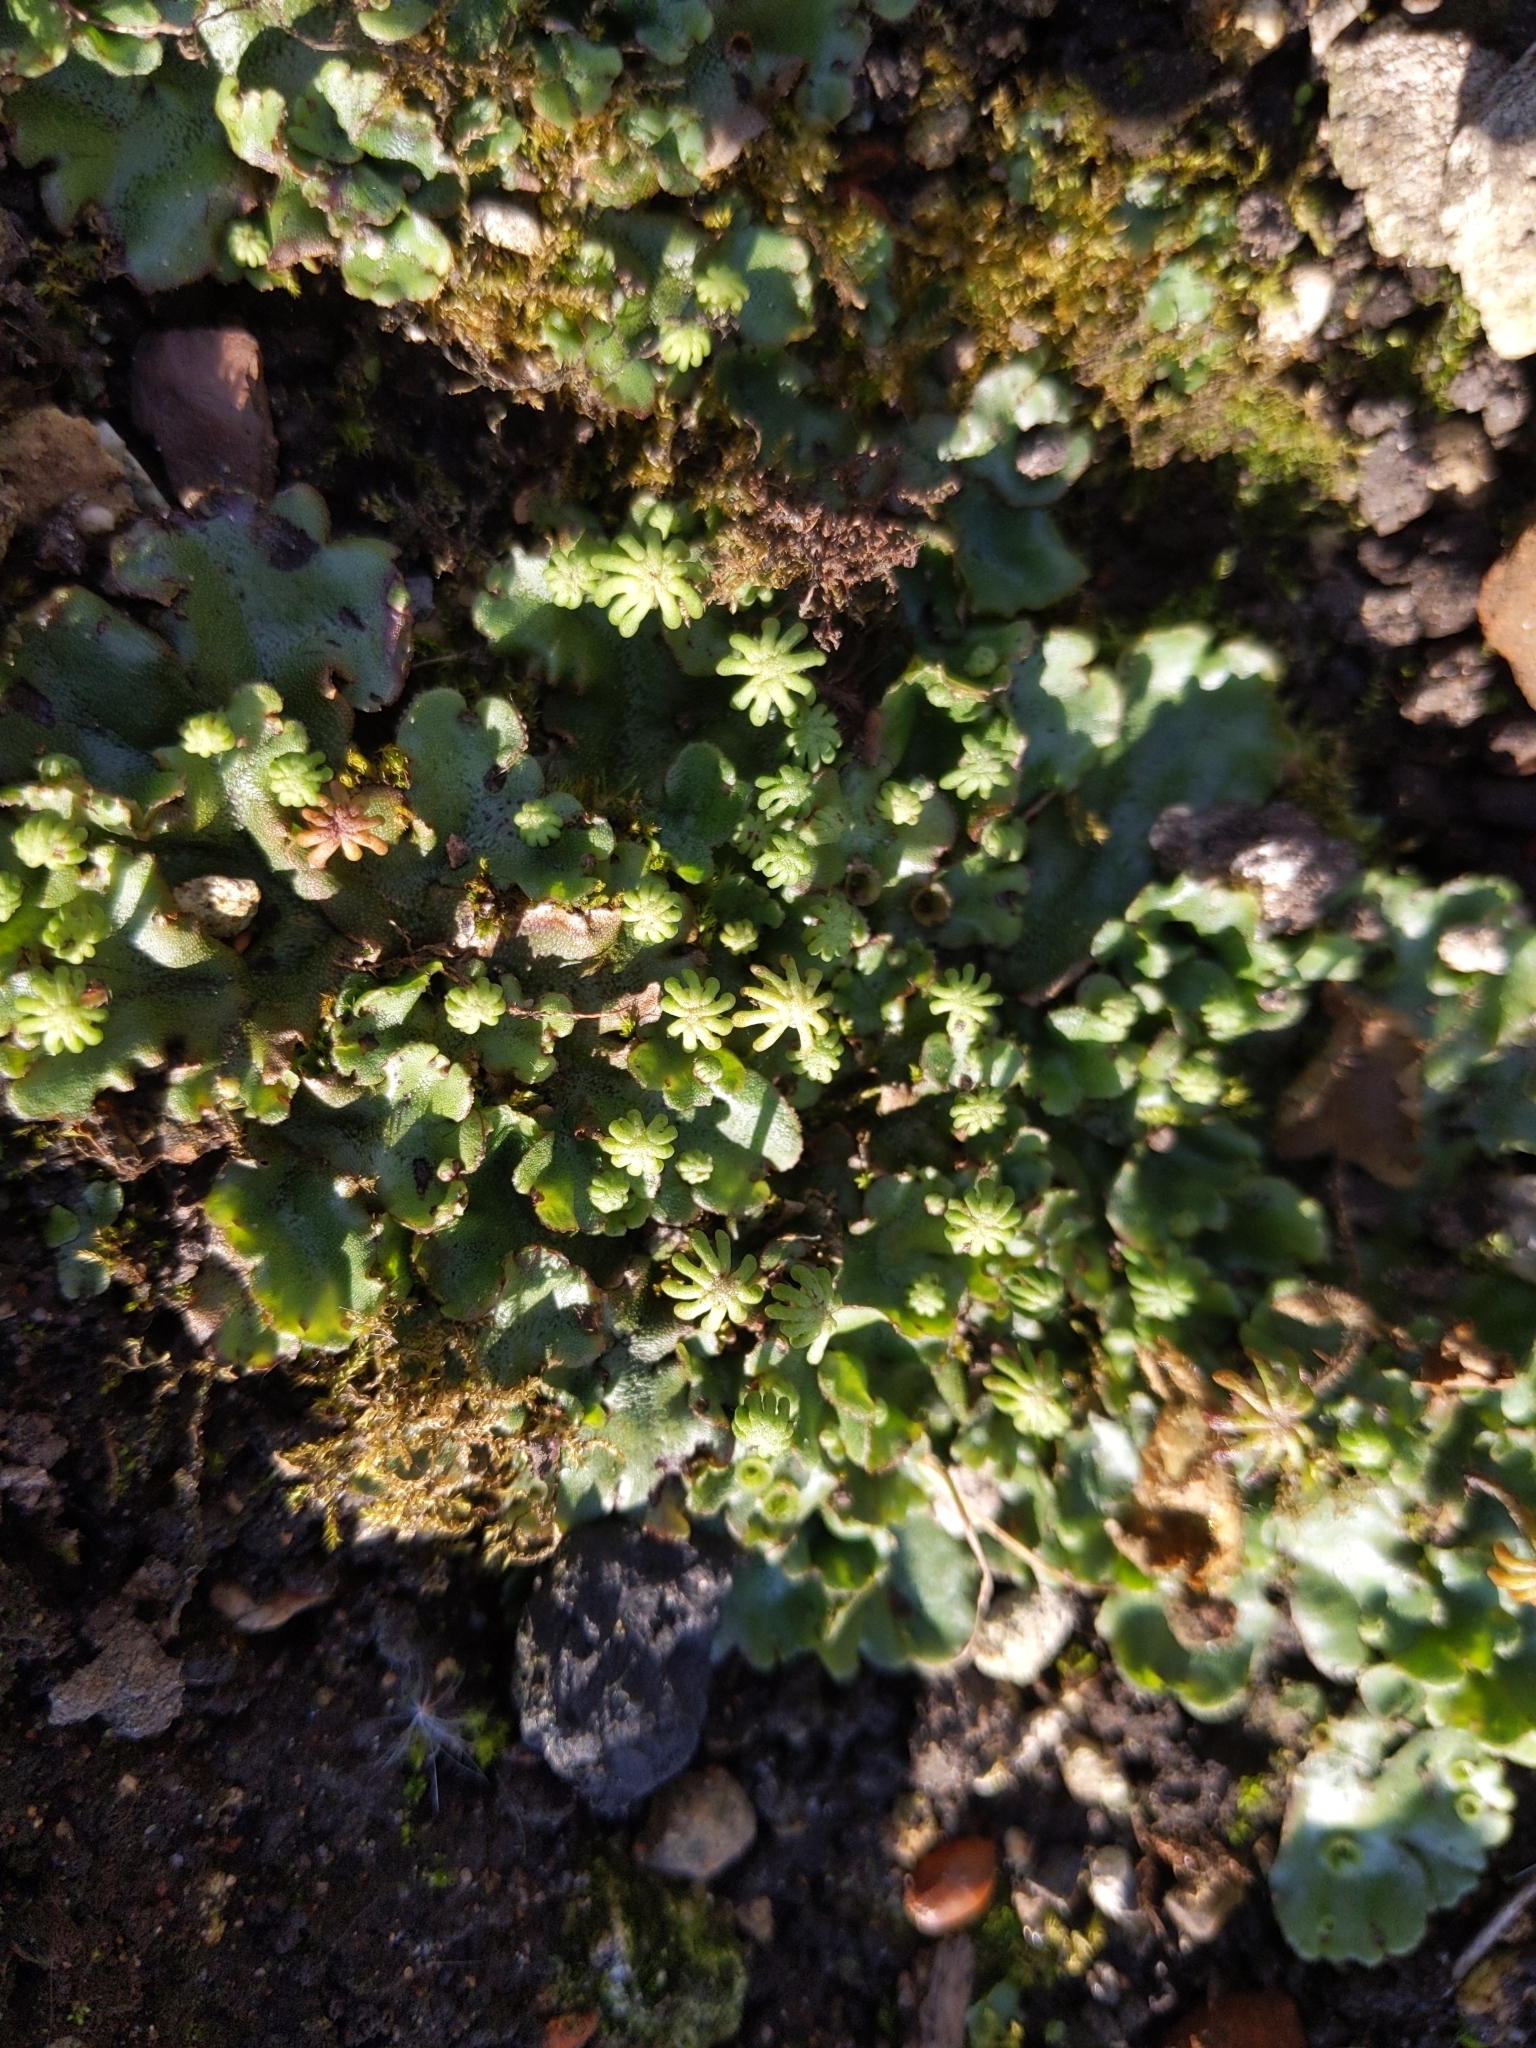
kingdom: Plantae
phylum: Marchantiophyta
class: Marchantiopsida
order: Marchantiales
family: Marchantiaceae
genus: Marchantia
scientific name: Marchantia polymorpha
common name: Common liverwort
